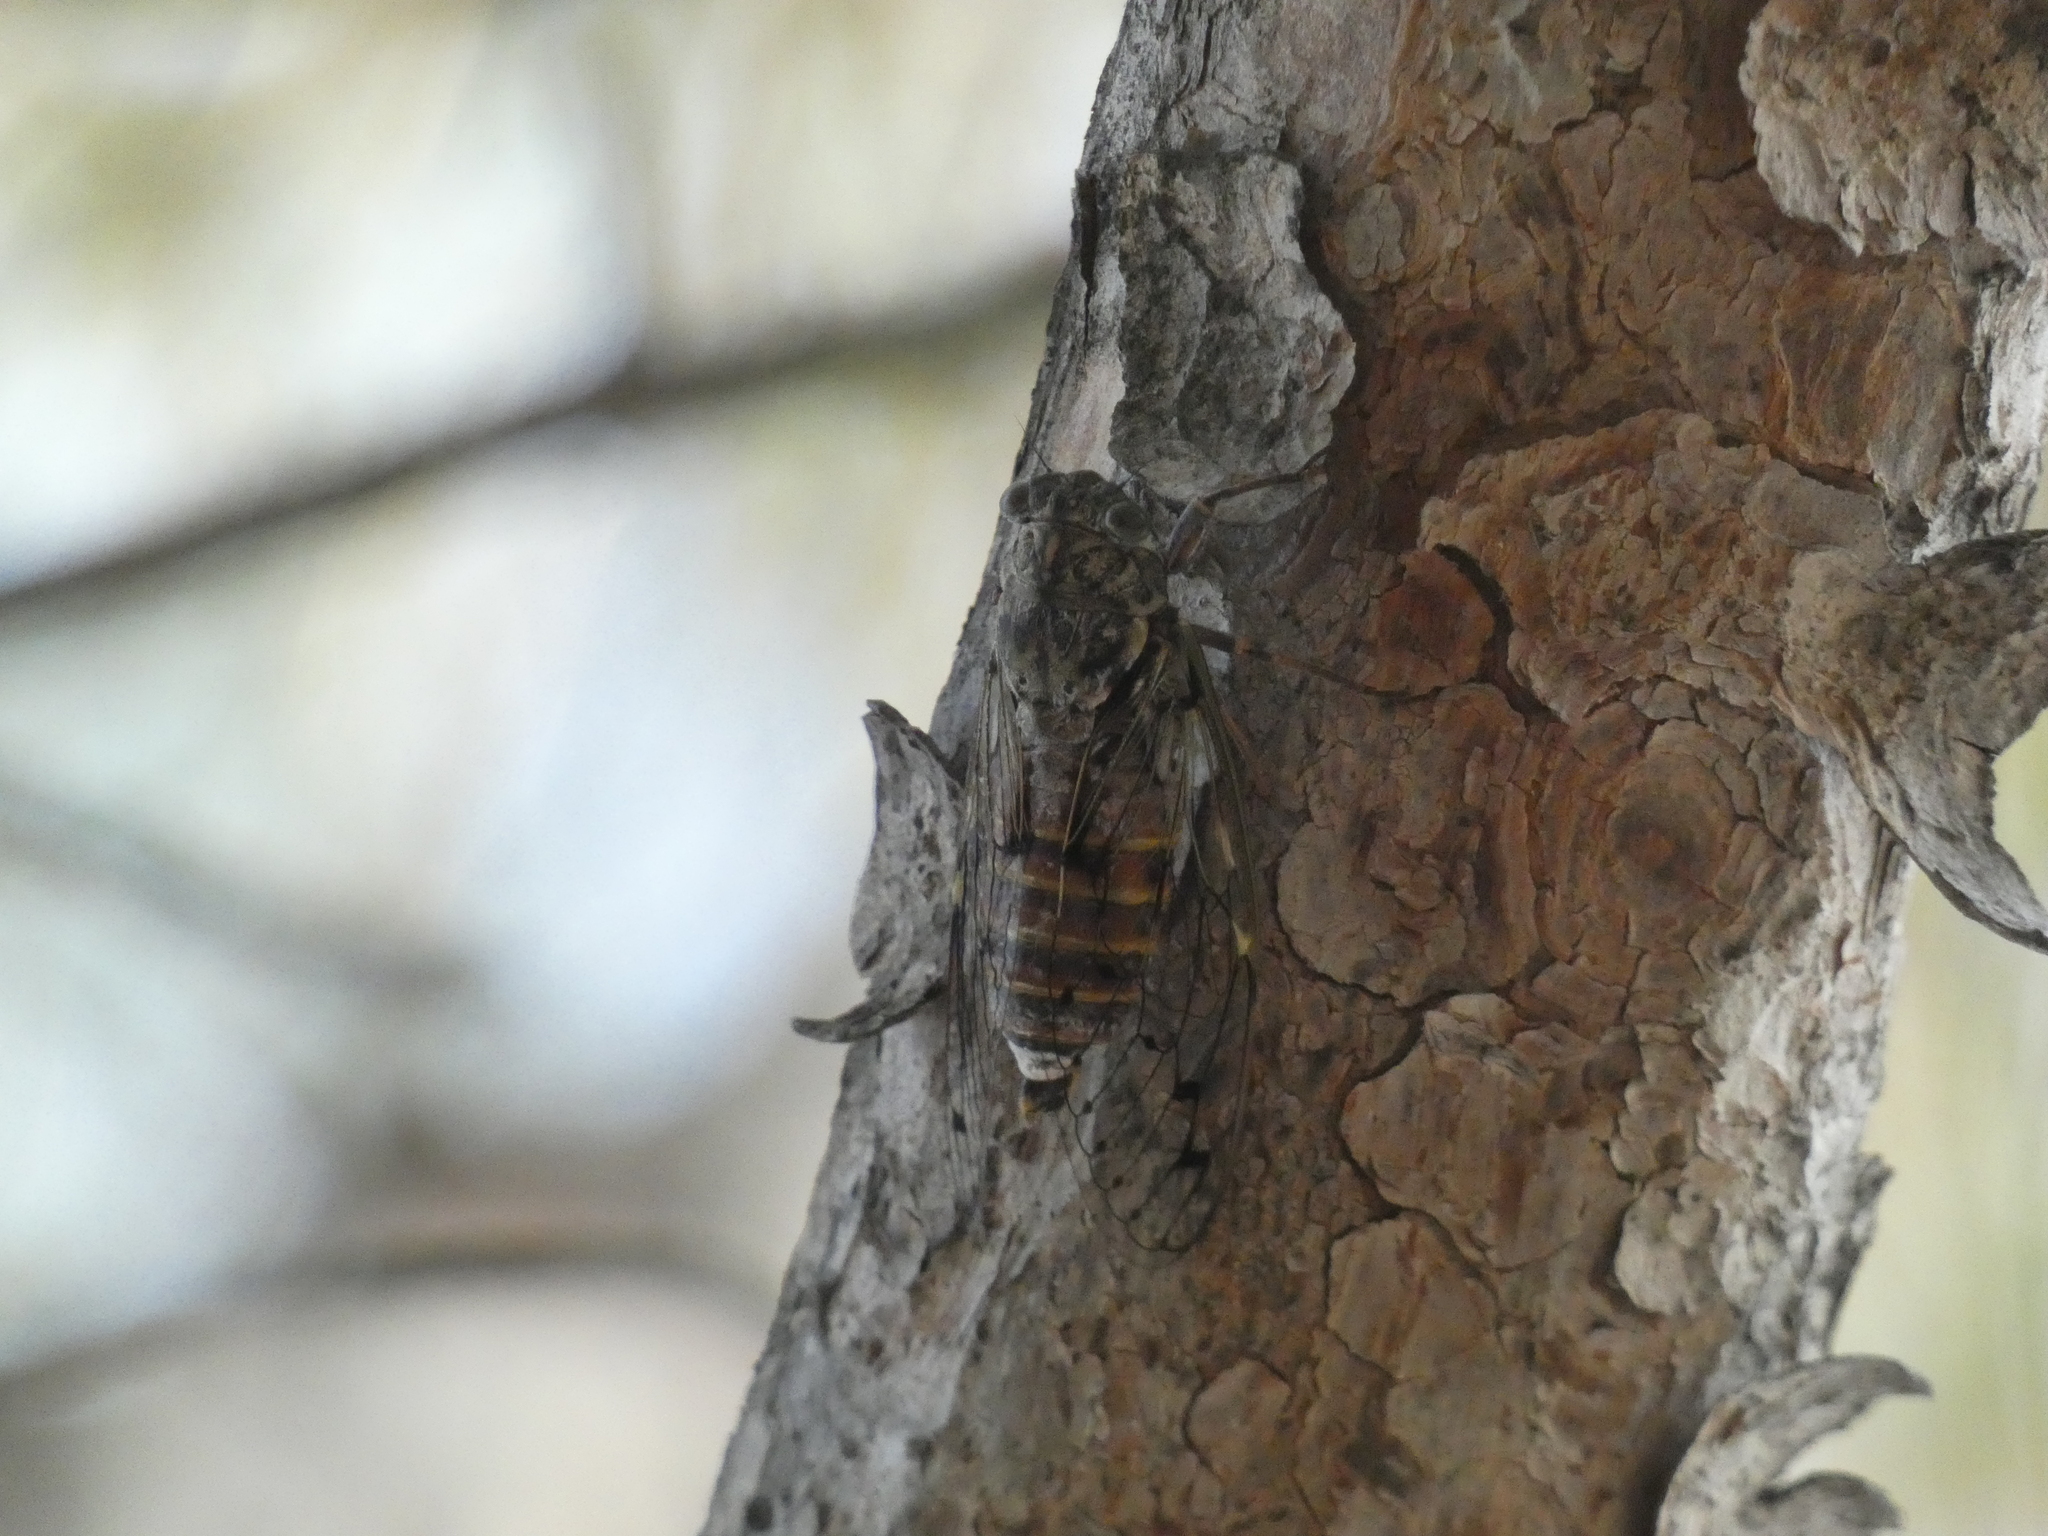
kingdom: Animalia
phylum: Arthropoda
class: Insecta
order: Hemiptera
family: Cicadidae
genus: Cicada
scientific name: Cicada orni
